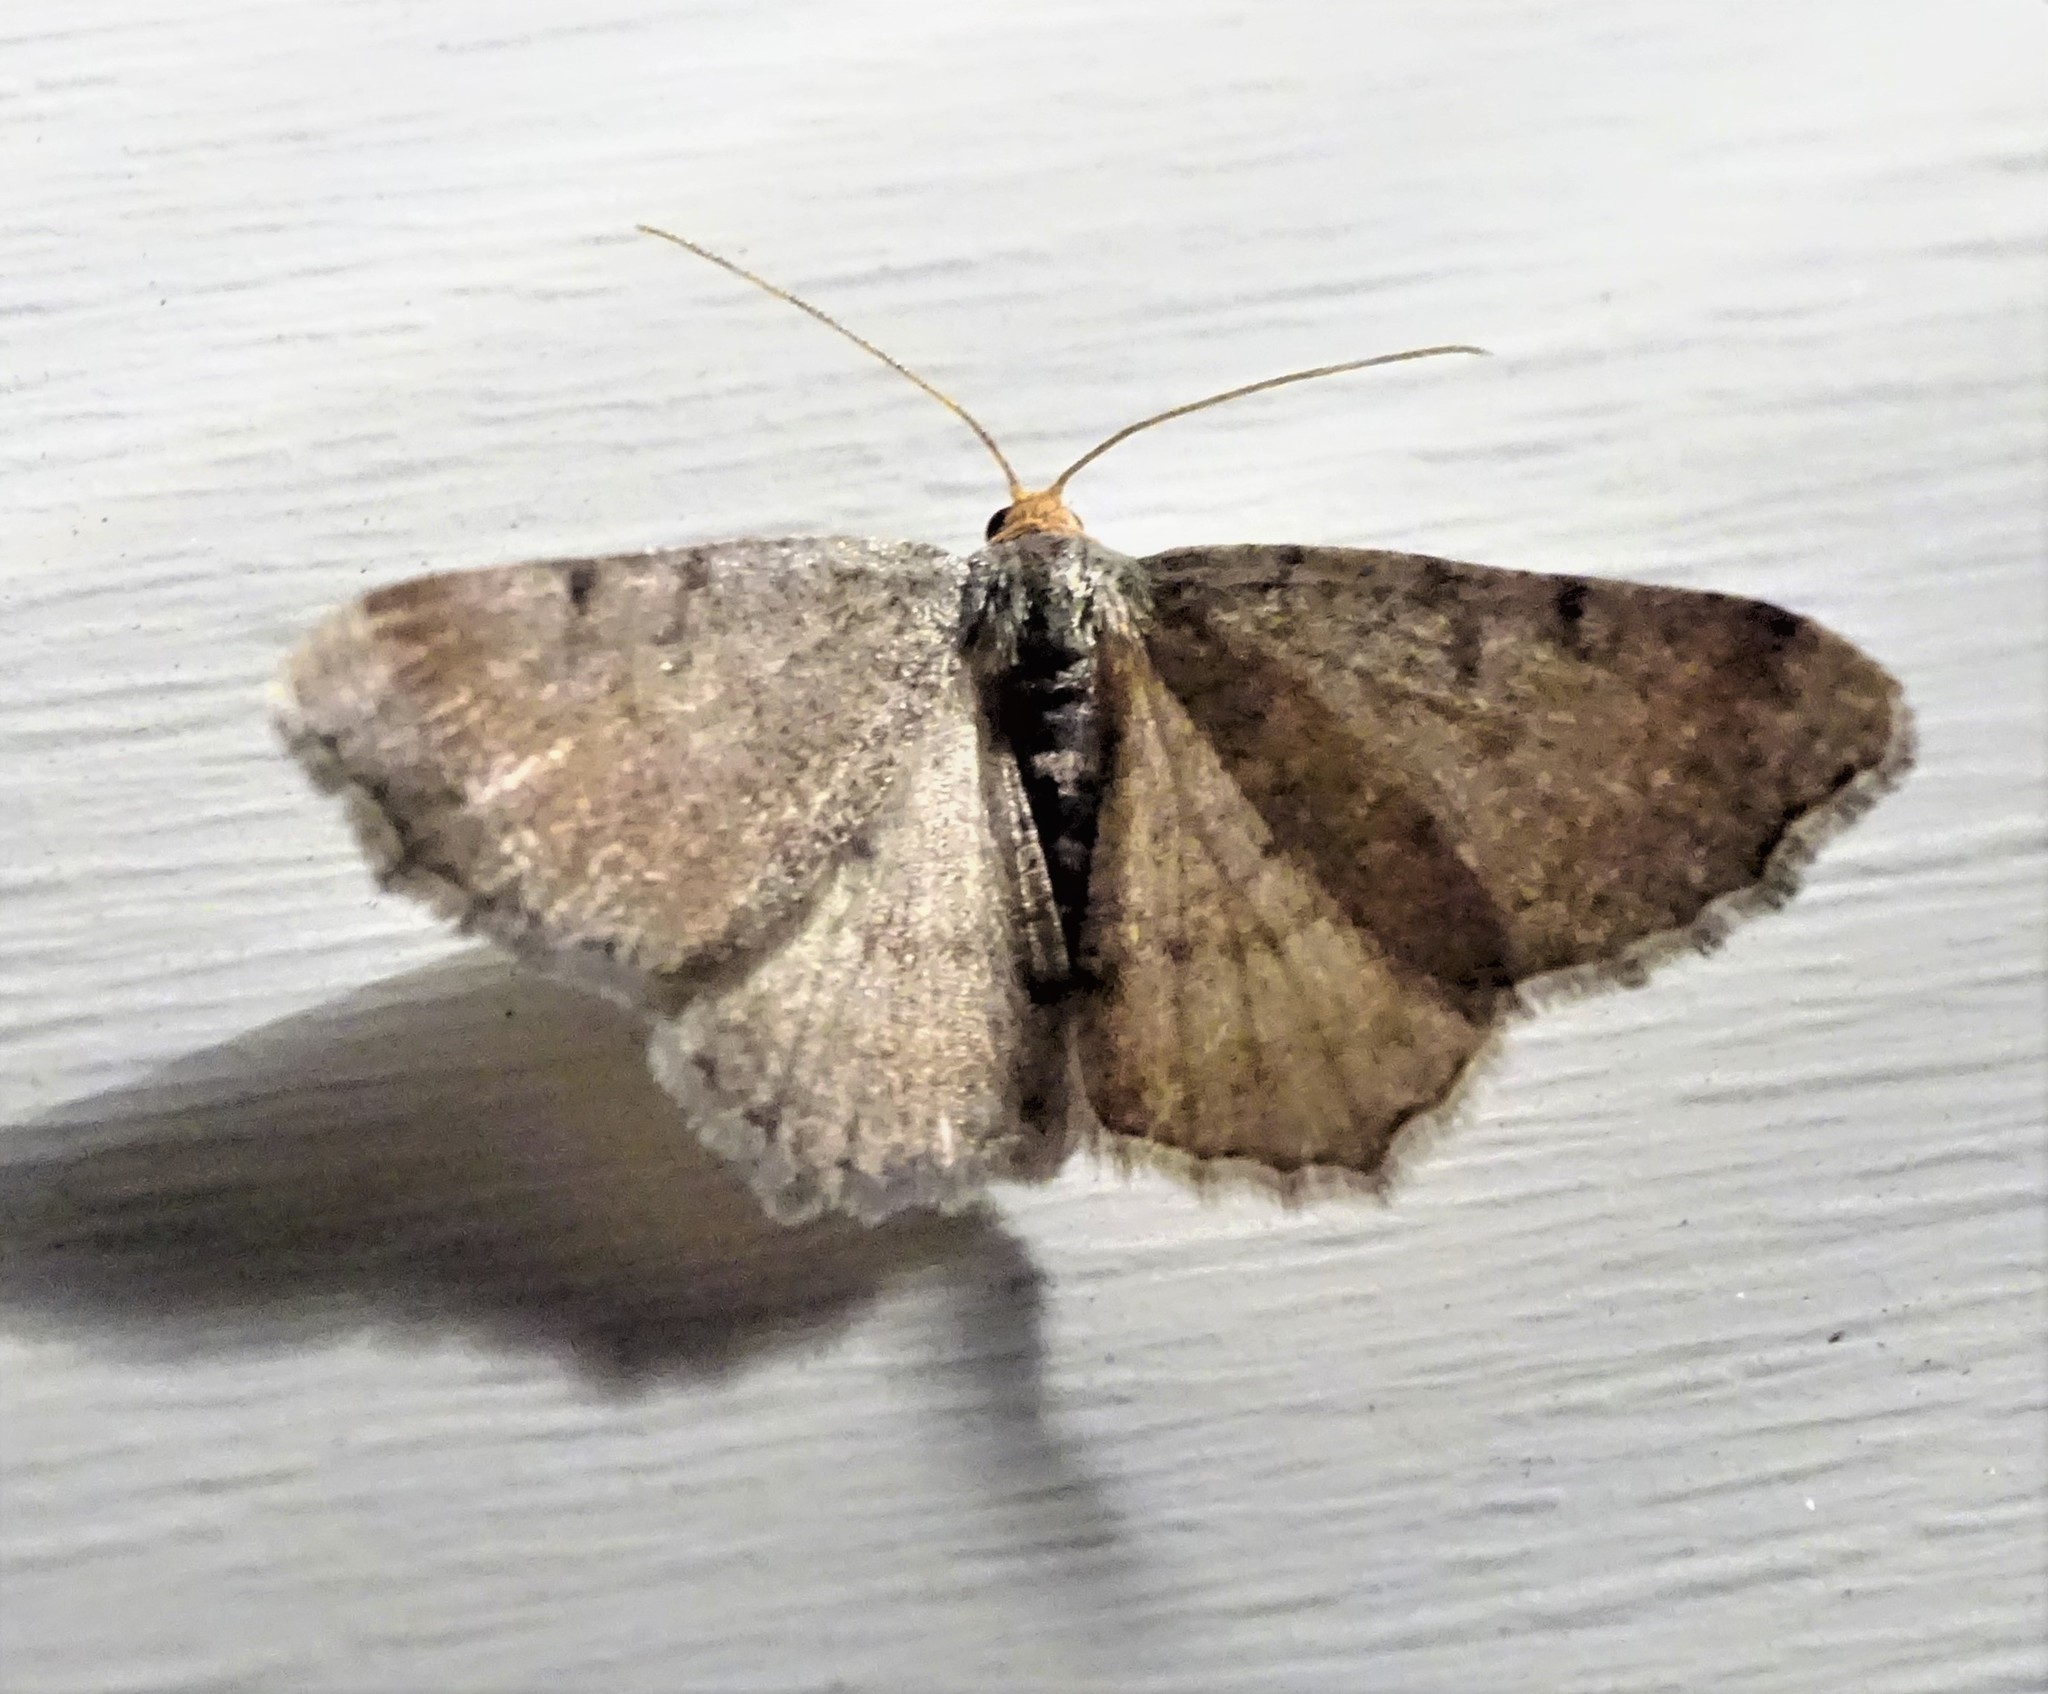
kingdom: Animalia
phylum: Arthropoda
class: Insecta
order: Lepidoptera
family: Geometridae
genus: Macaria
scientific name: Macaria minorata
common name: Minor angle moth
